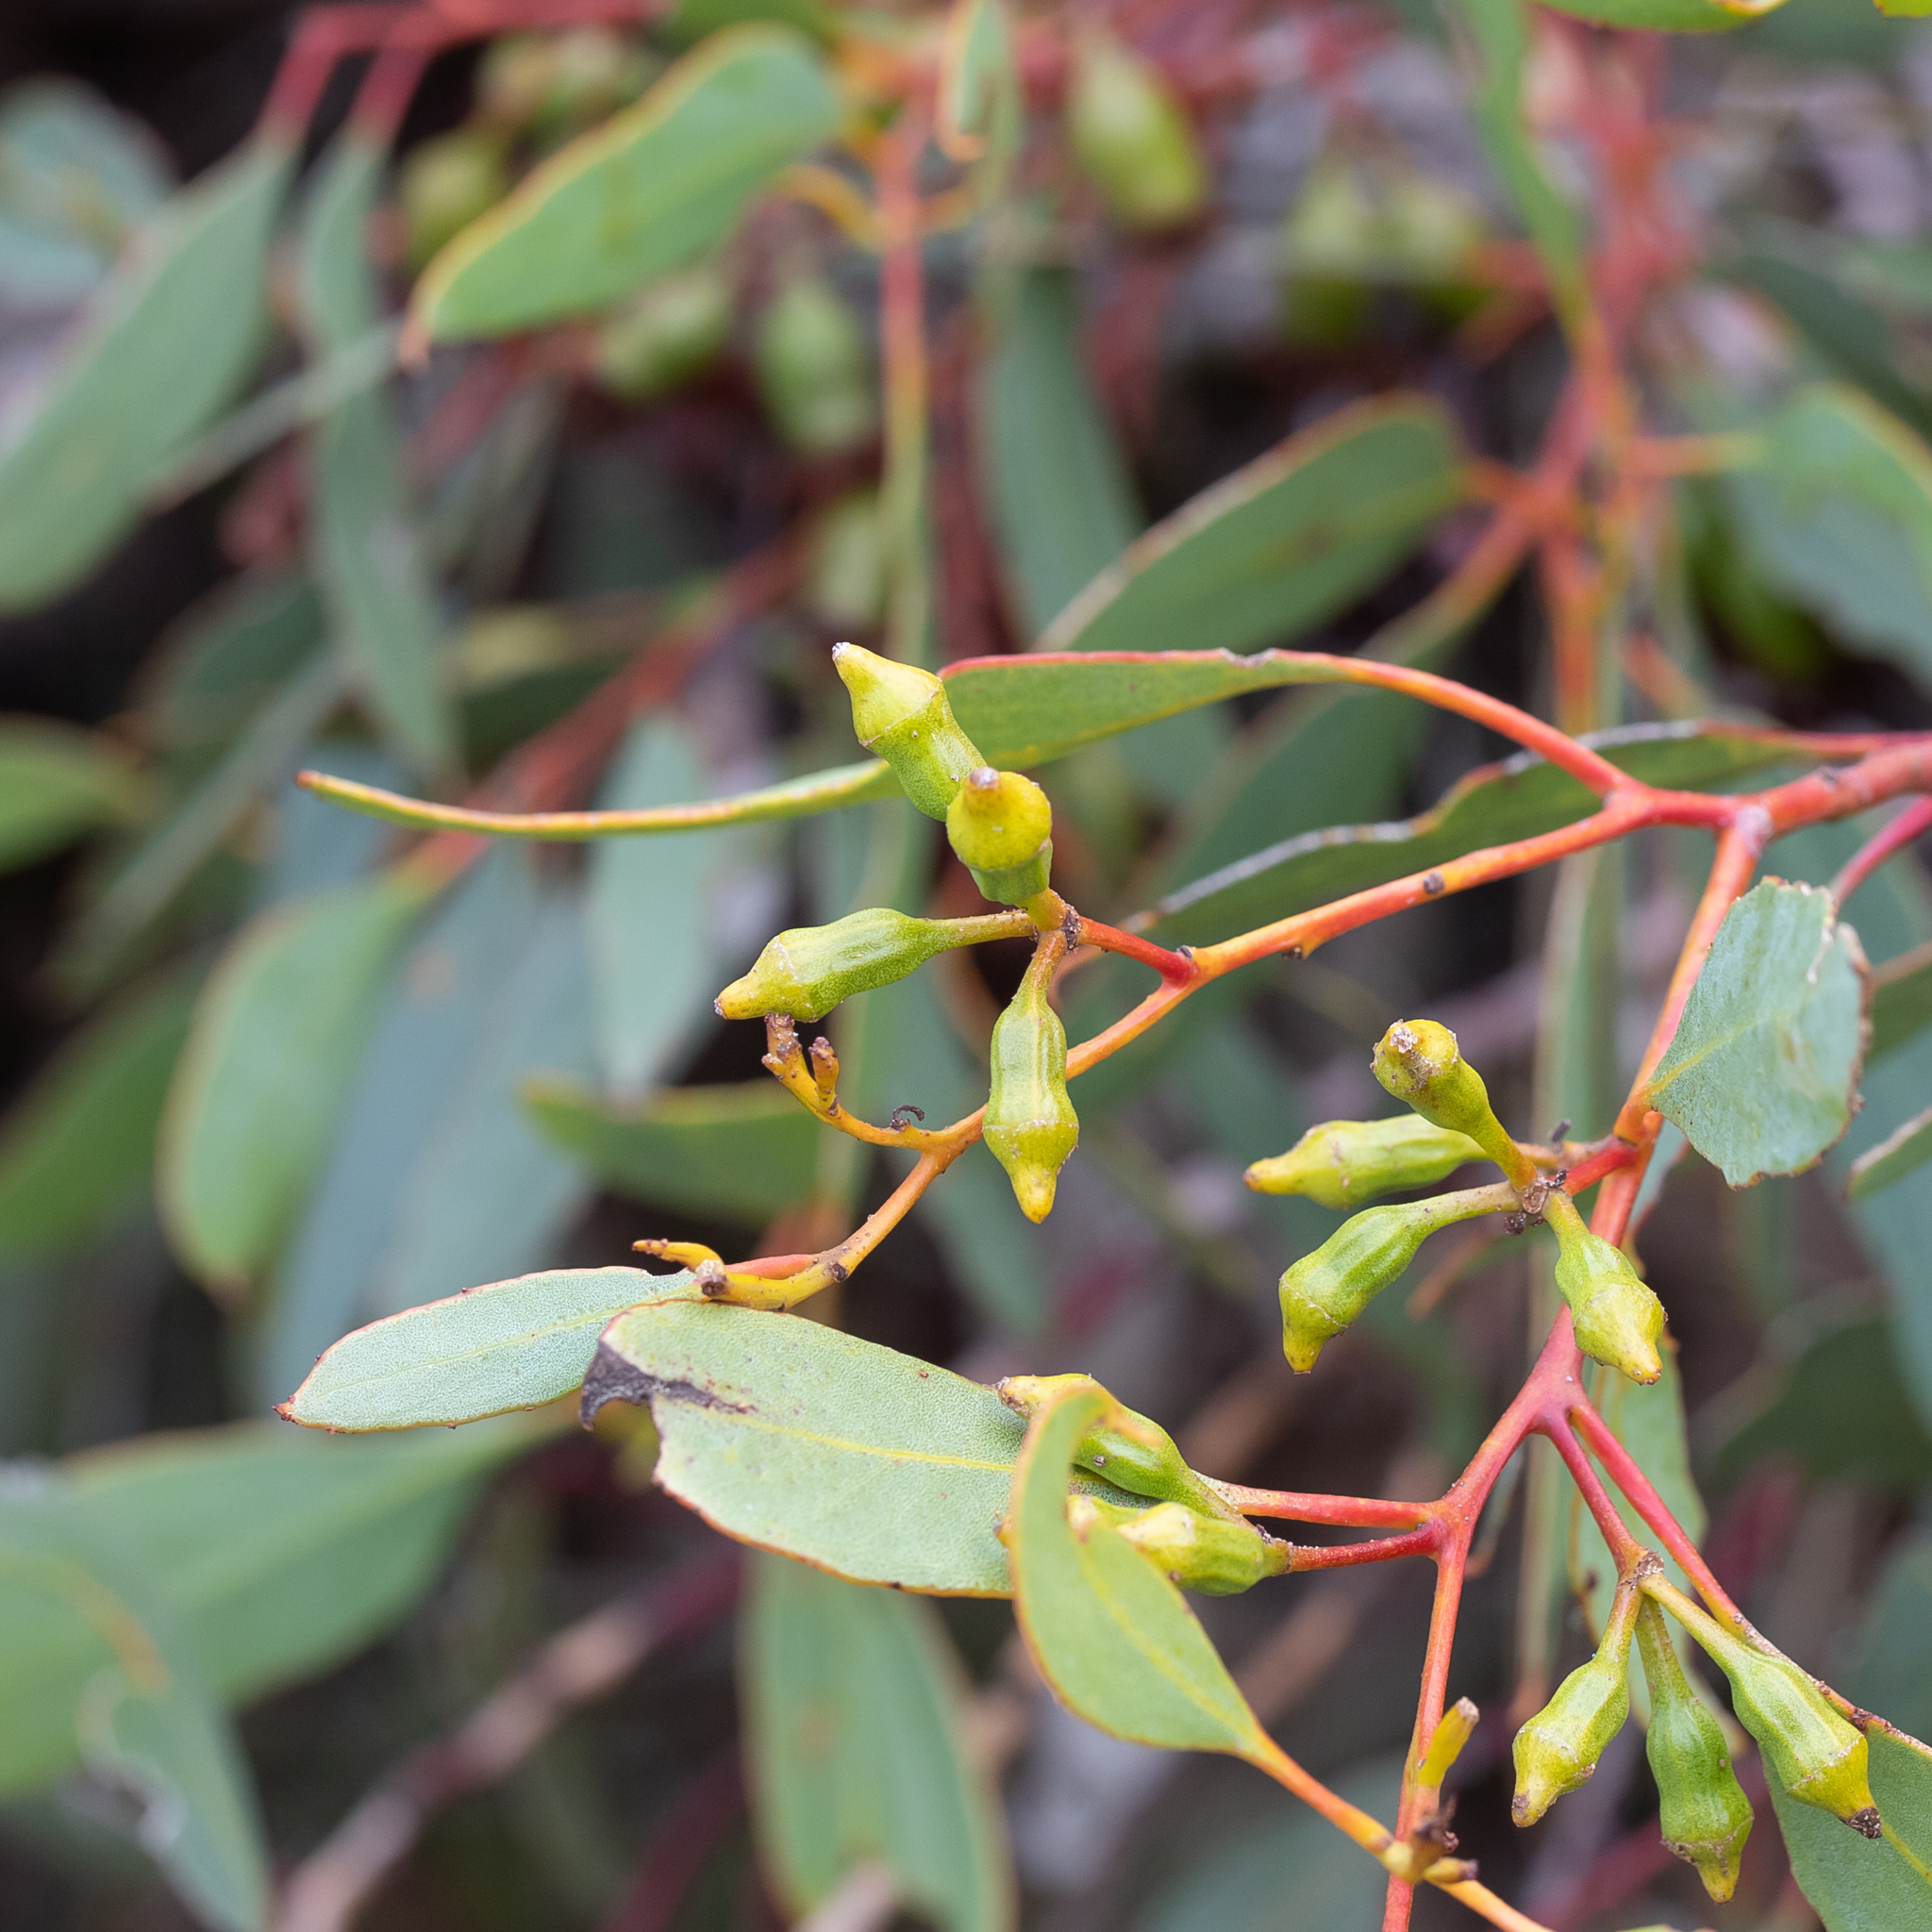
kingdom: Plantae
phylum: Tracheophyta
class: Magnoliopsida
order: Myrtales
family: Myrtaceae
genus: Eucalyptus
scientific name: Eucalyptus incrassata
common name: Ridge-fruit mallee
